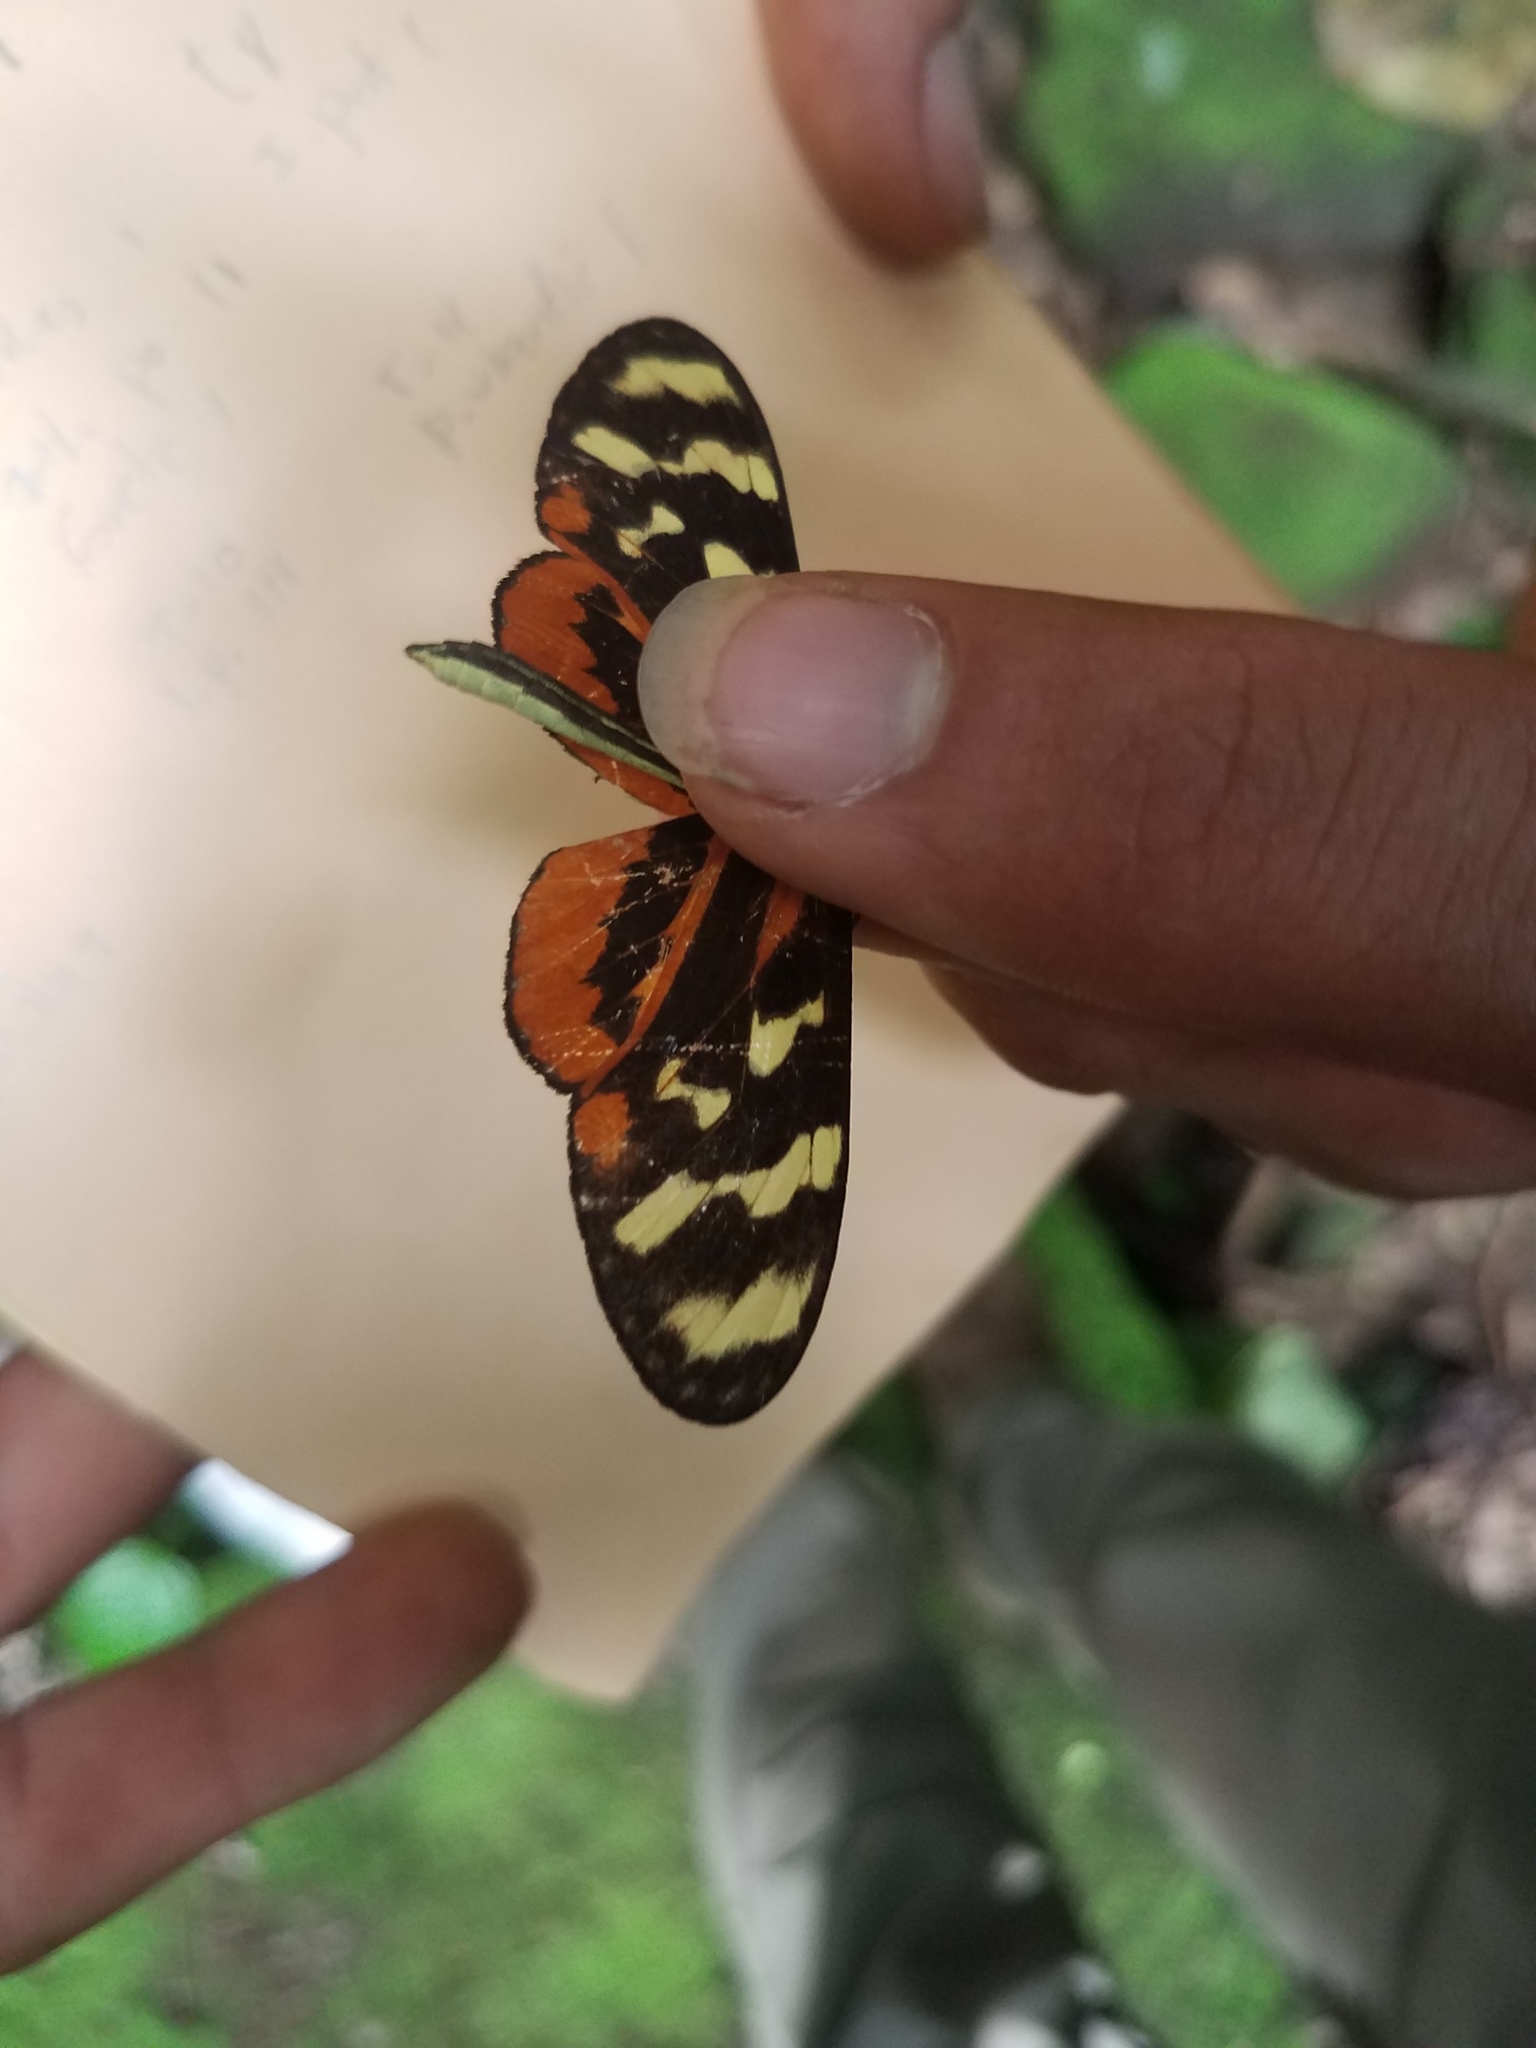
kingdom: Animalia
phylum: Arthropoda
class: Insecta
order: Lepidoptera
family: Nymphalidae
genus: Mechanitis
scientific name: Mechanitis polymnia
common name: Disturbed tigerwing
